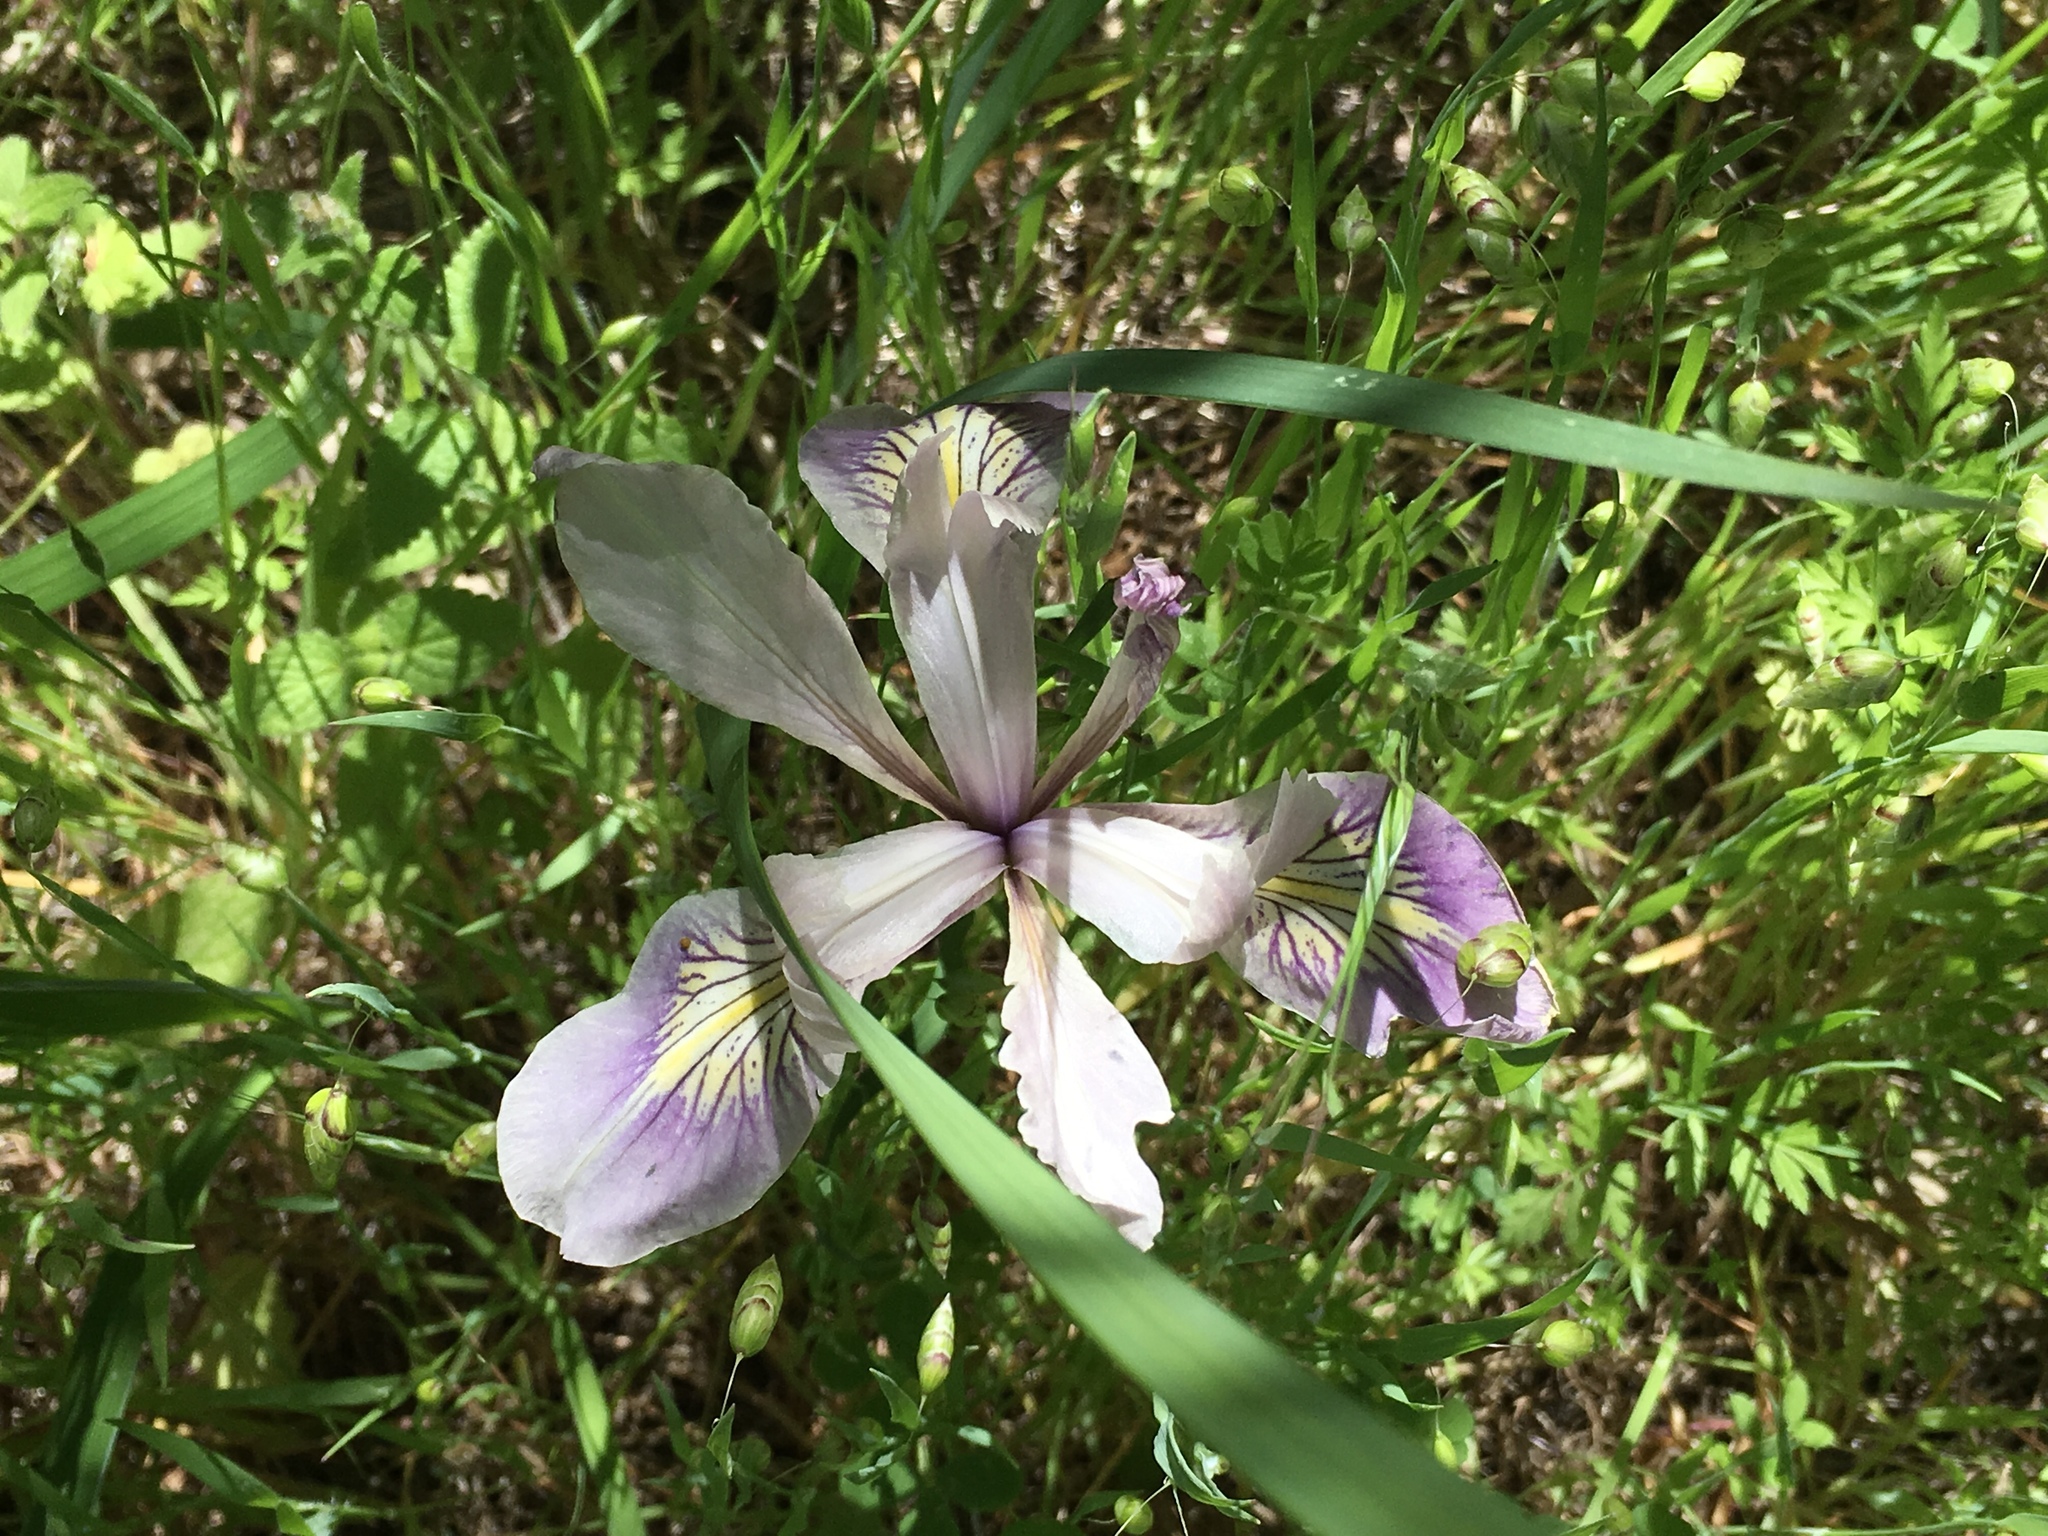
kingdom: Plantae
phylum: Tracheophyta
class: Liliopsida
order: Asparagales
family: Iridaceae
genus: Iris
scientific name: Iris douglasiana
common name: Marin iris
